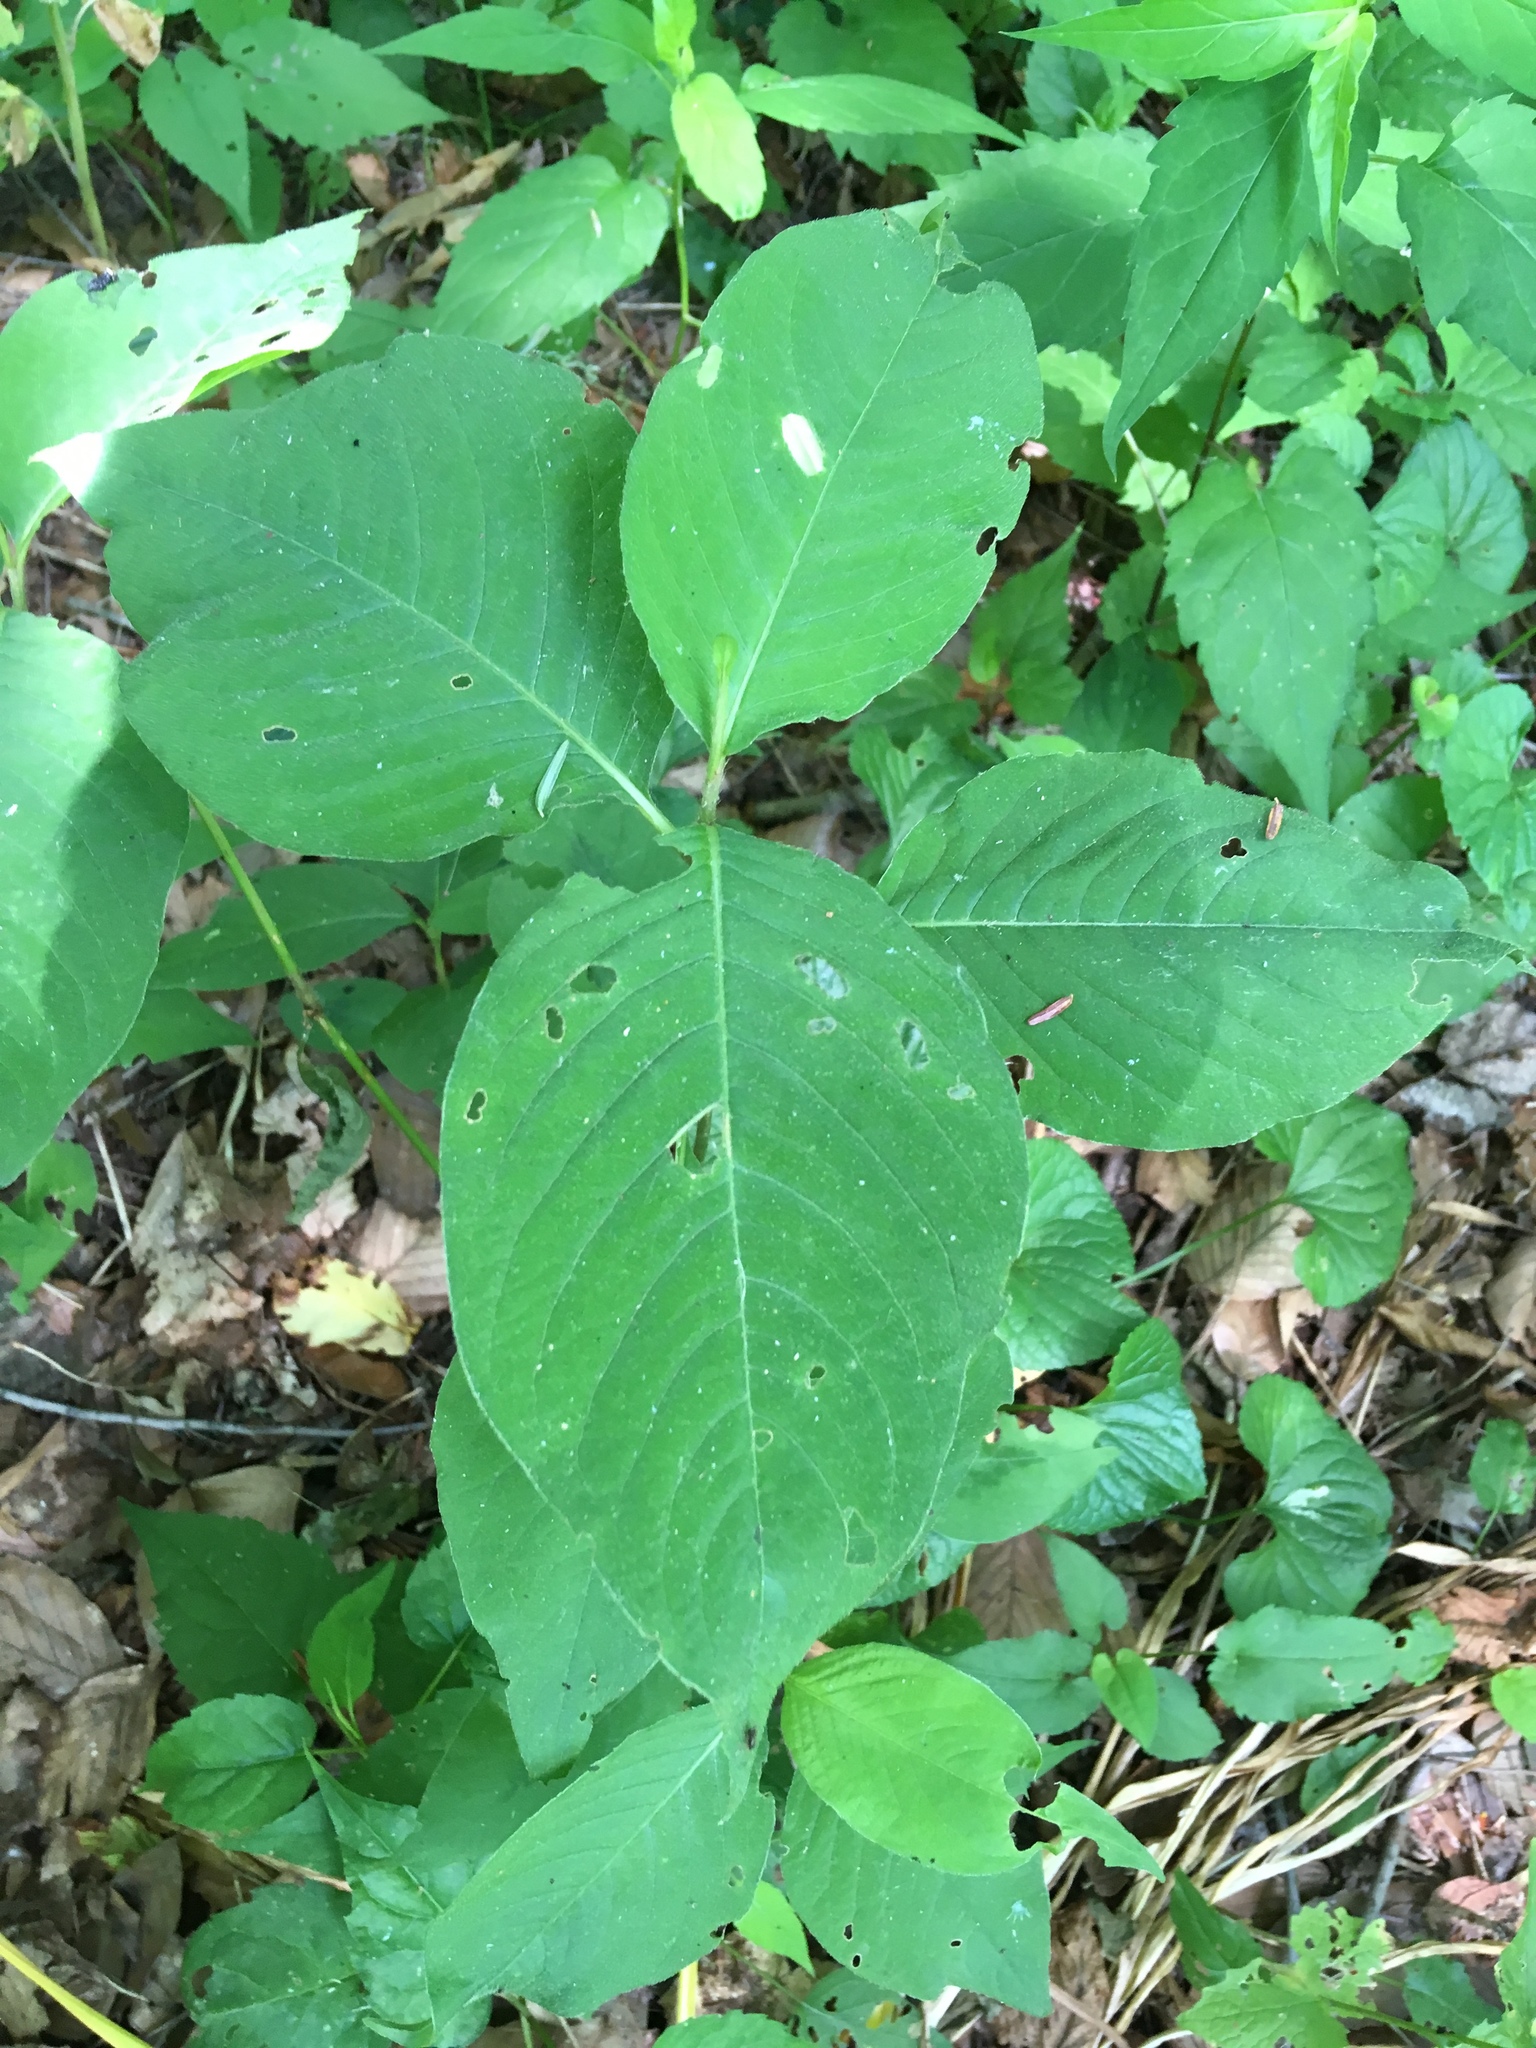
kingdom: Plantae
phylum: Tracheophyta
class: Magnoliopsida
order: Caryophyllales
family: Polygonaceae
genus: Persicaria
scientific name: Persicaria virginiana
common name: Jumpseed
